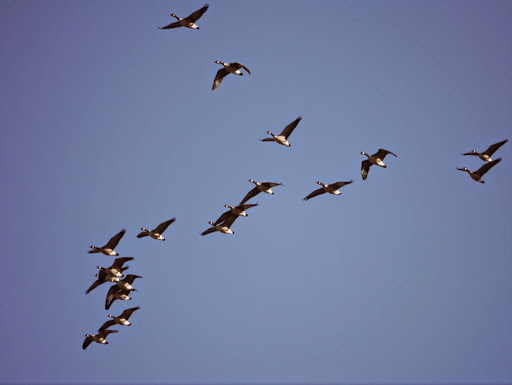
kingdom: Animalia
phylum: Chordata
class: Aves
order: Anseriformes
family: Anatidae
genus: Branta
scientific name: Branta canadensis
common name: Canada goose
